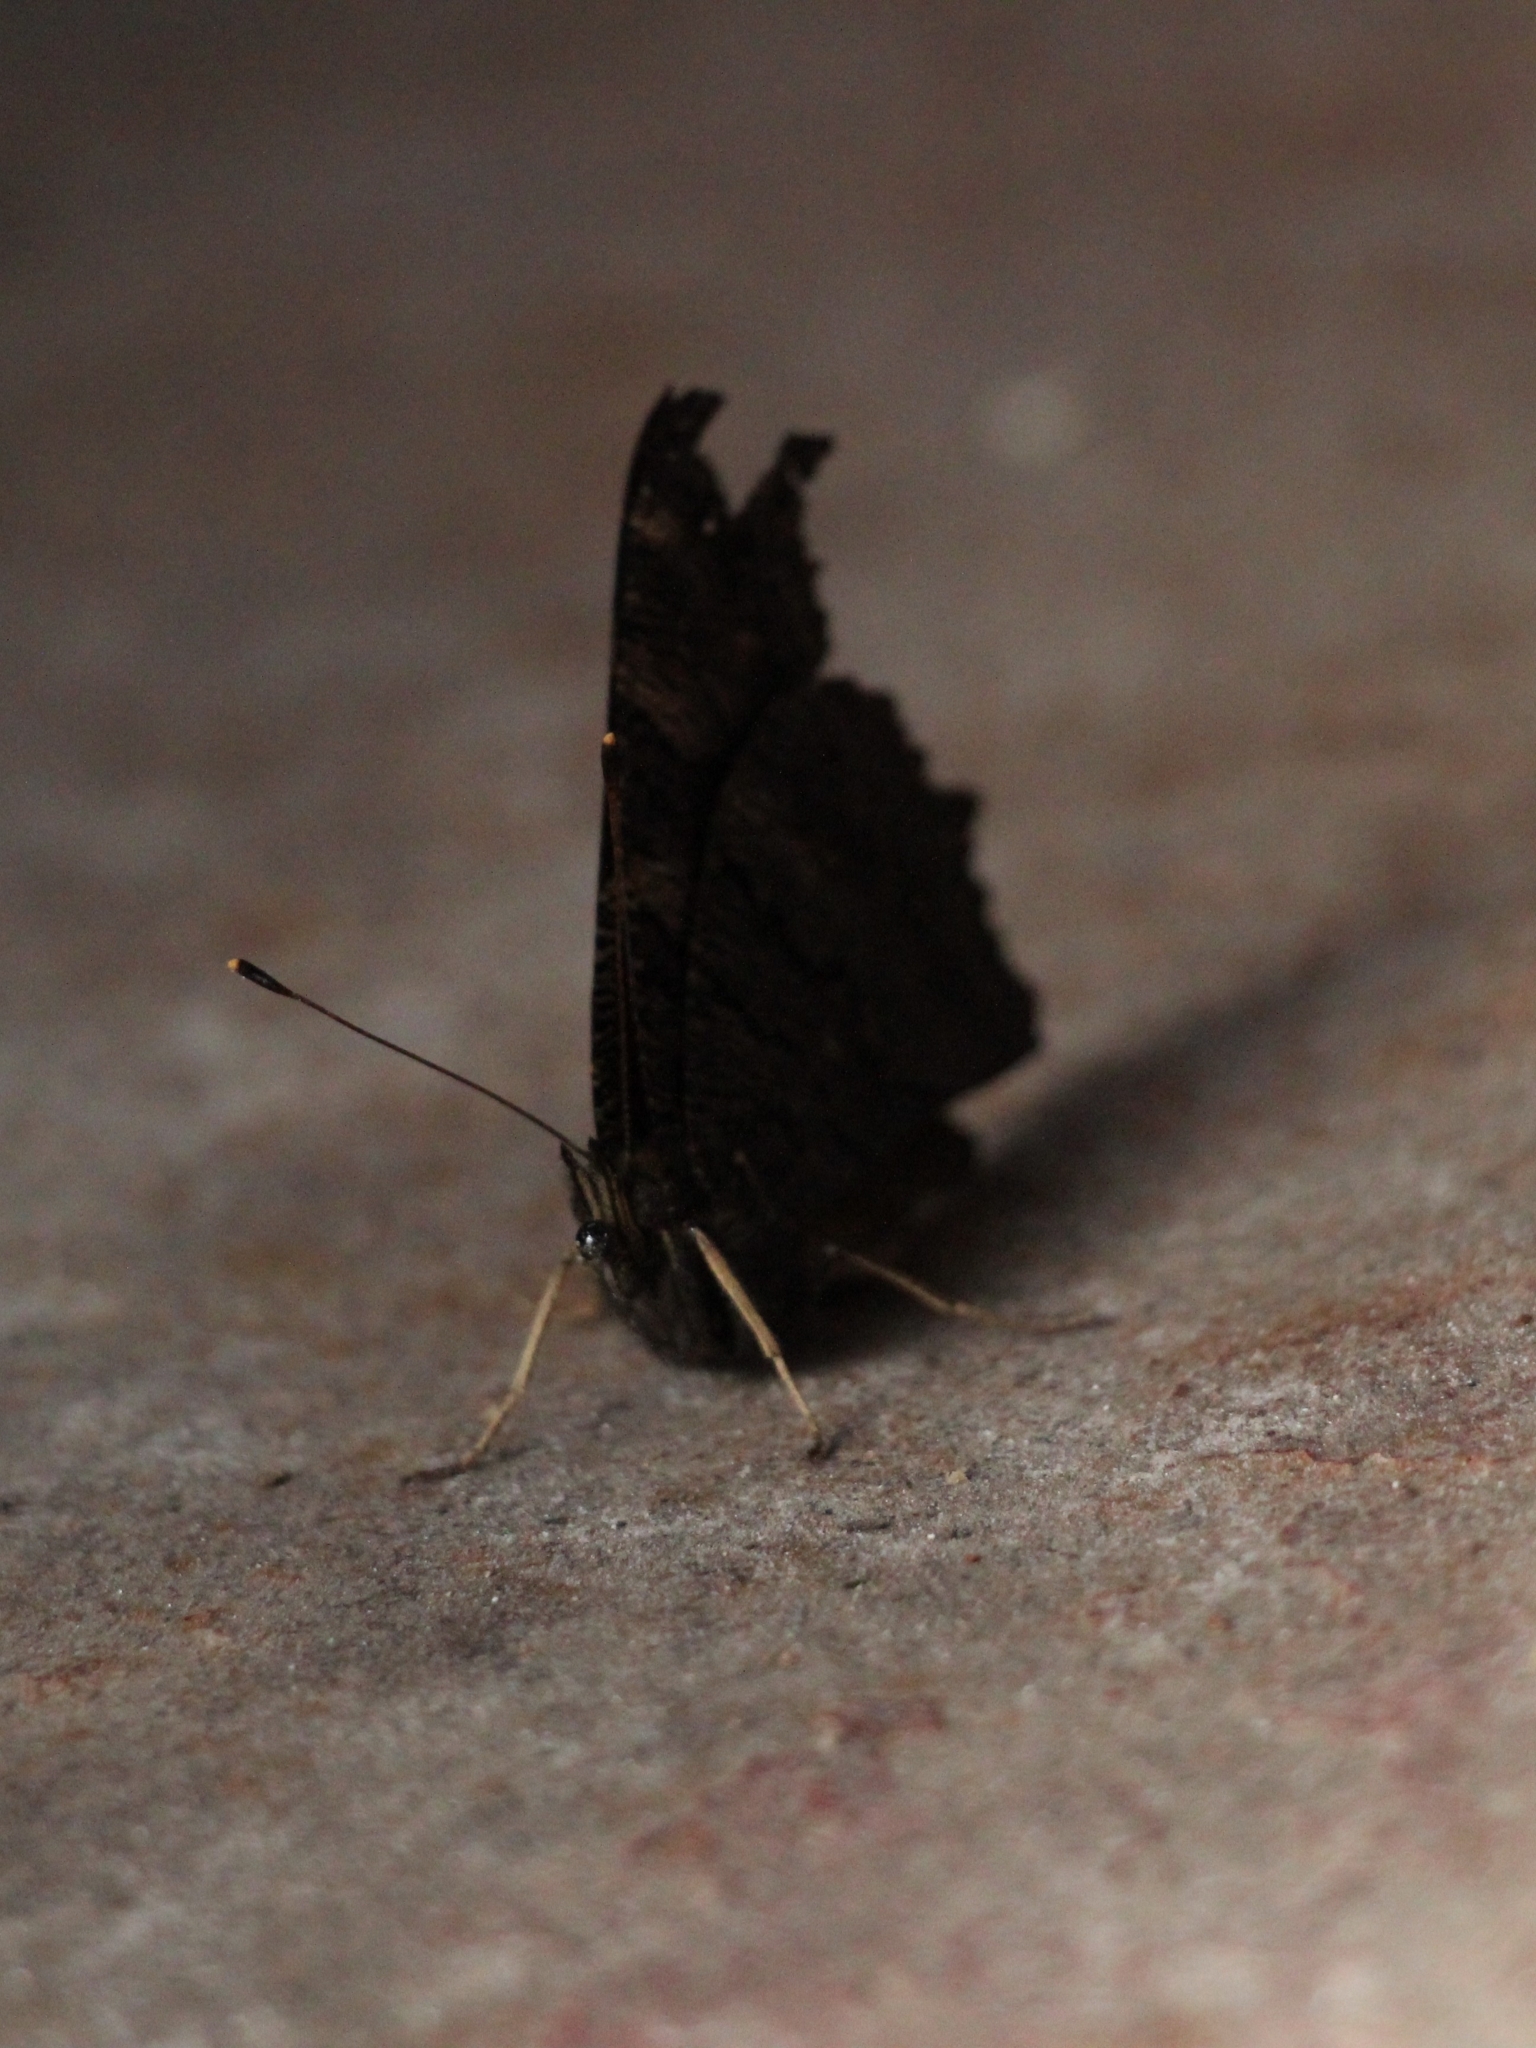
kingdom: Animalia
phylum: Arthropoda
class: Insecta
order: Lepidoptera
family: Nymphalidae
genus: Aglais
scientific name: Aglais io
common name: Peacock
